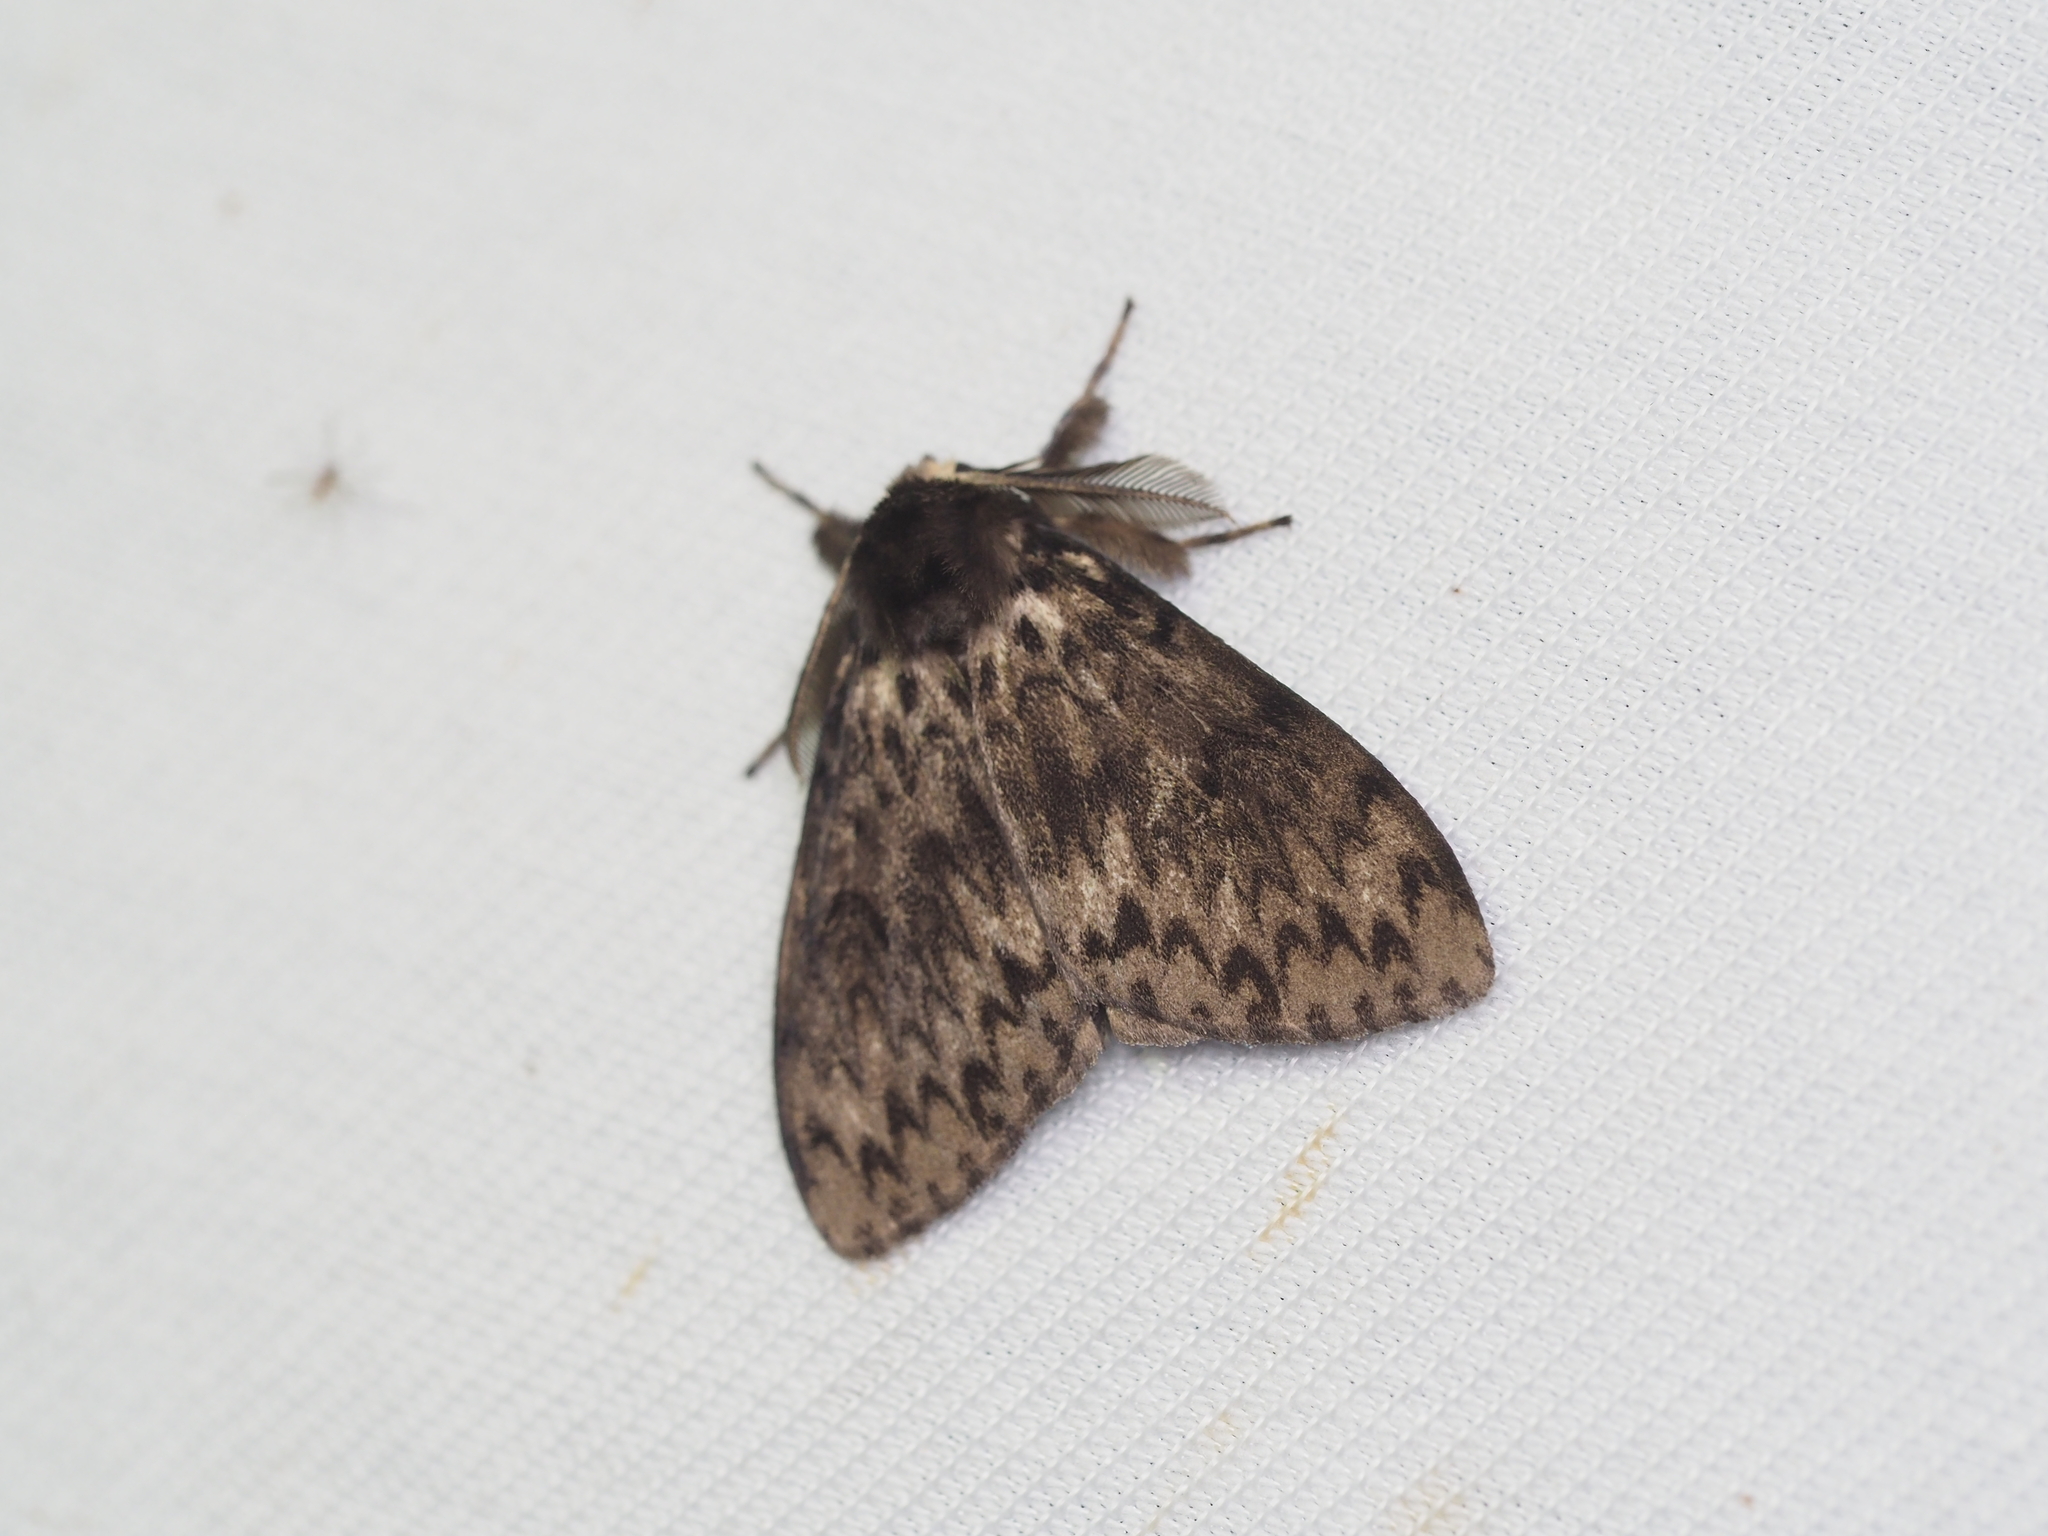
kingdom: Animalia
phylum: Arthropoda
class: Insecta
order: Lepidoptera
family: Erebidae
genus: Lymantria
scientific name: Lymantria monacha
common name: Black arches
